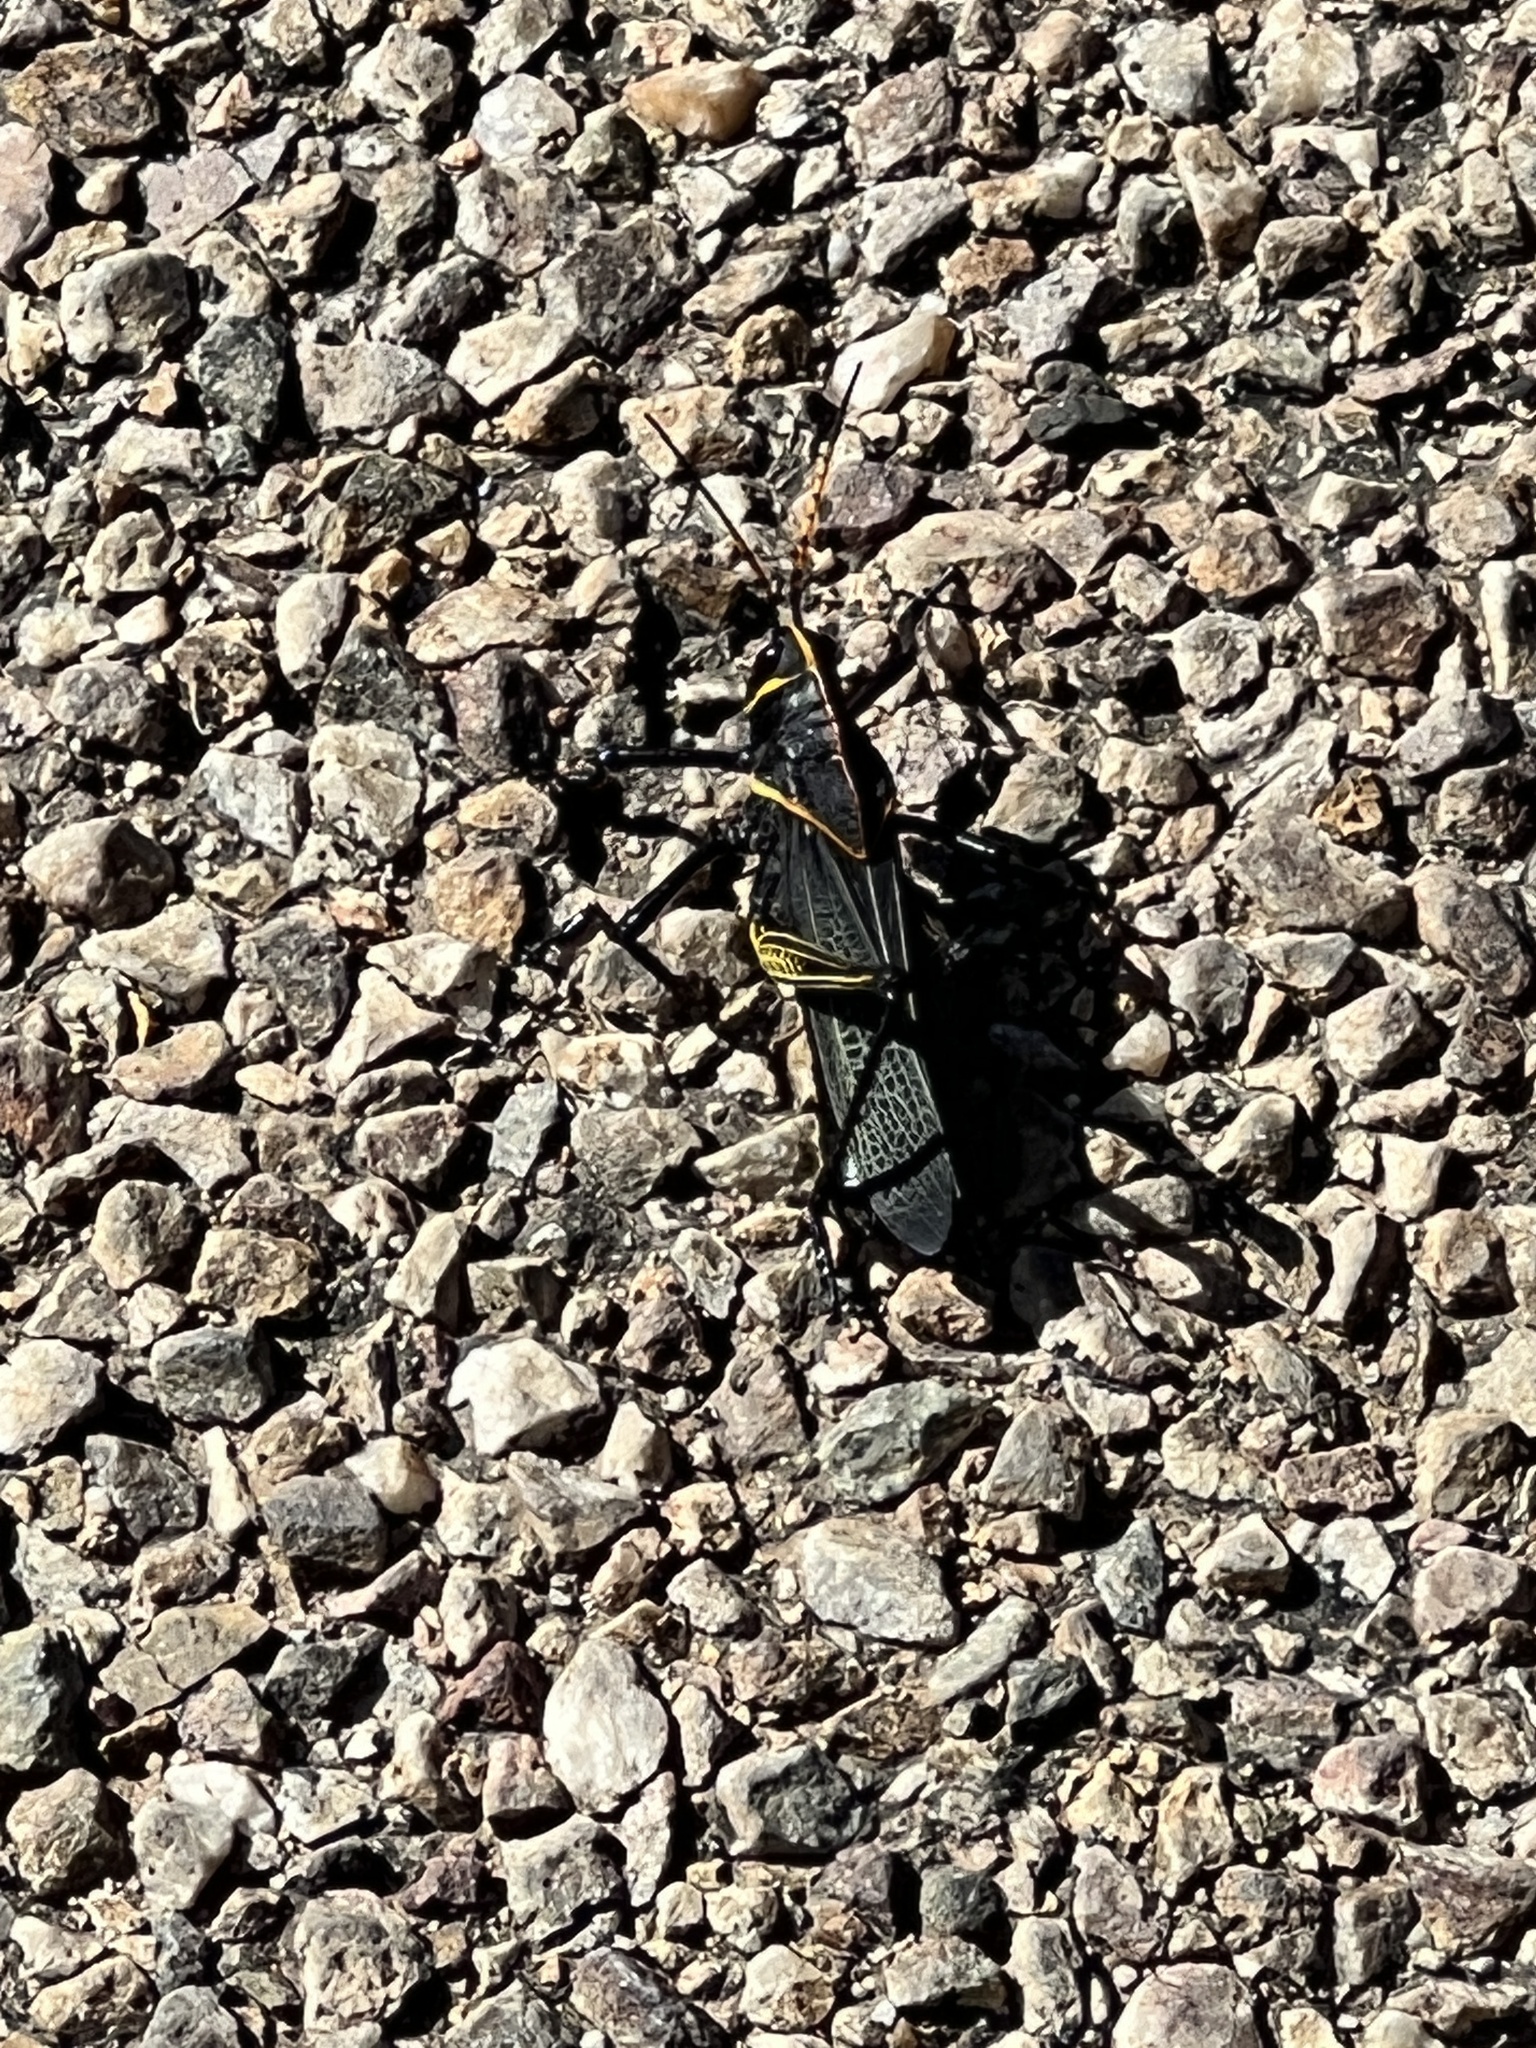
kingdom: Animalia
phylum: Arthropoda
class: Insecta
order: Orthoptera
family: Romaleidae
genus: Romalea
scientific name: Romalea
